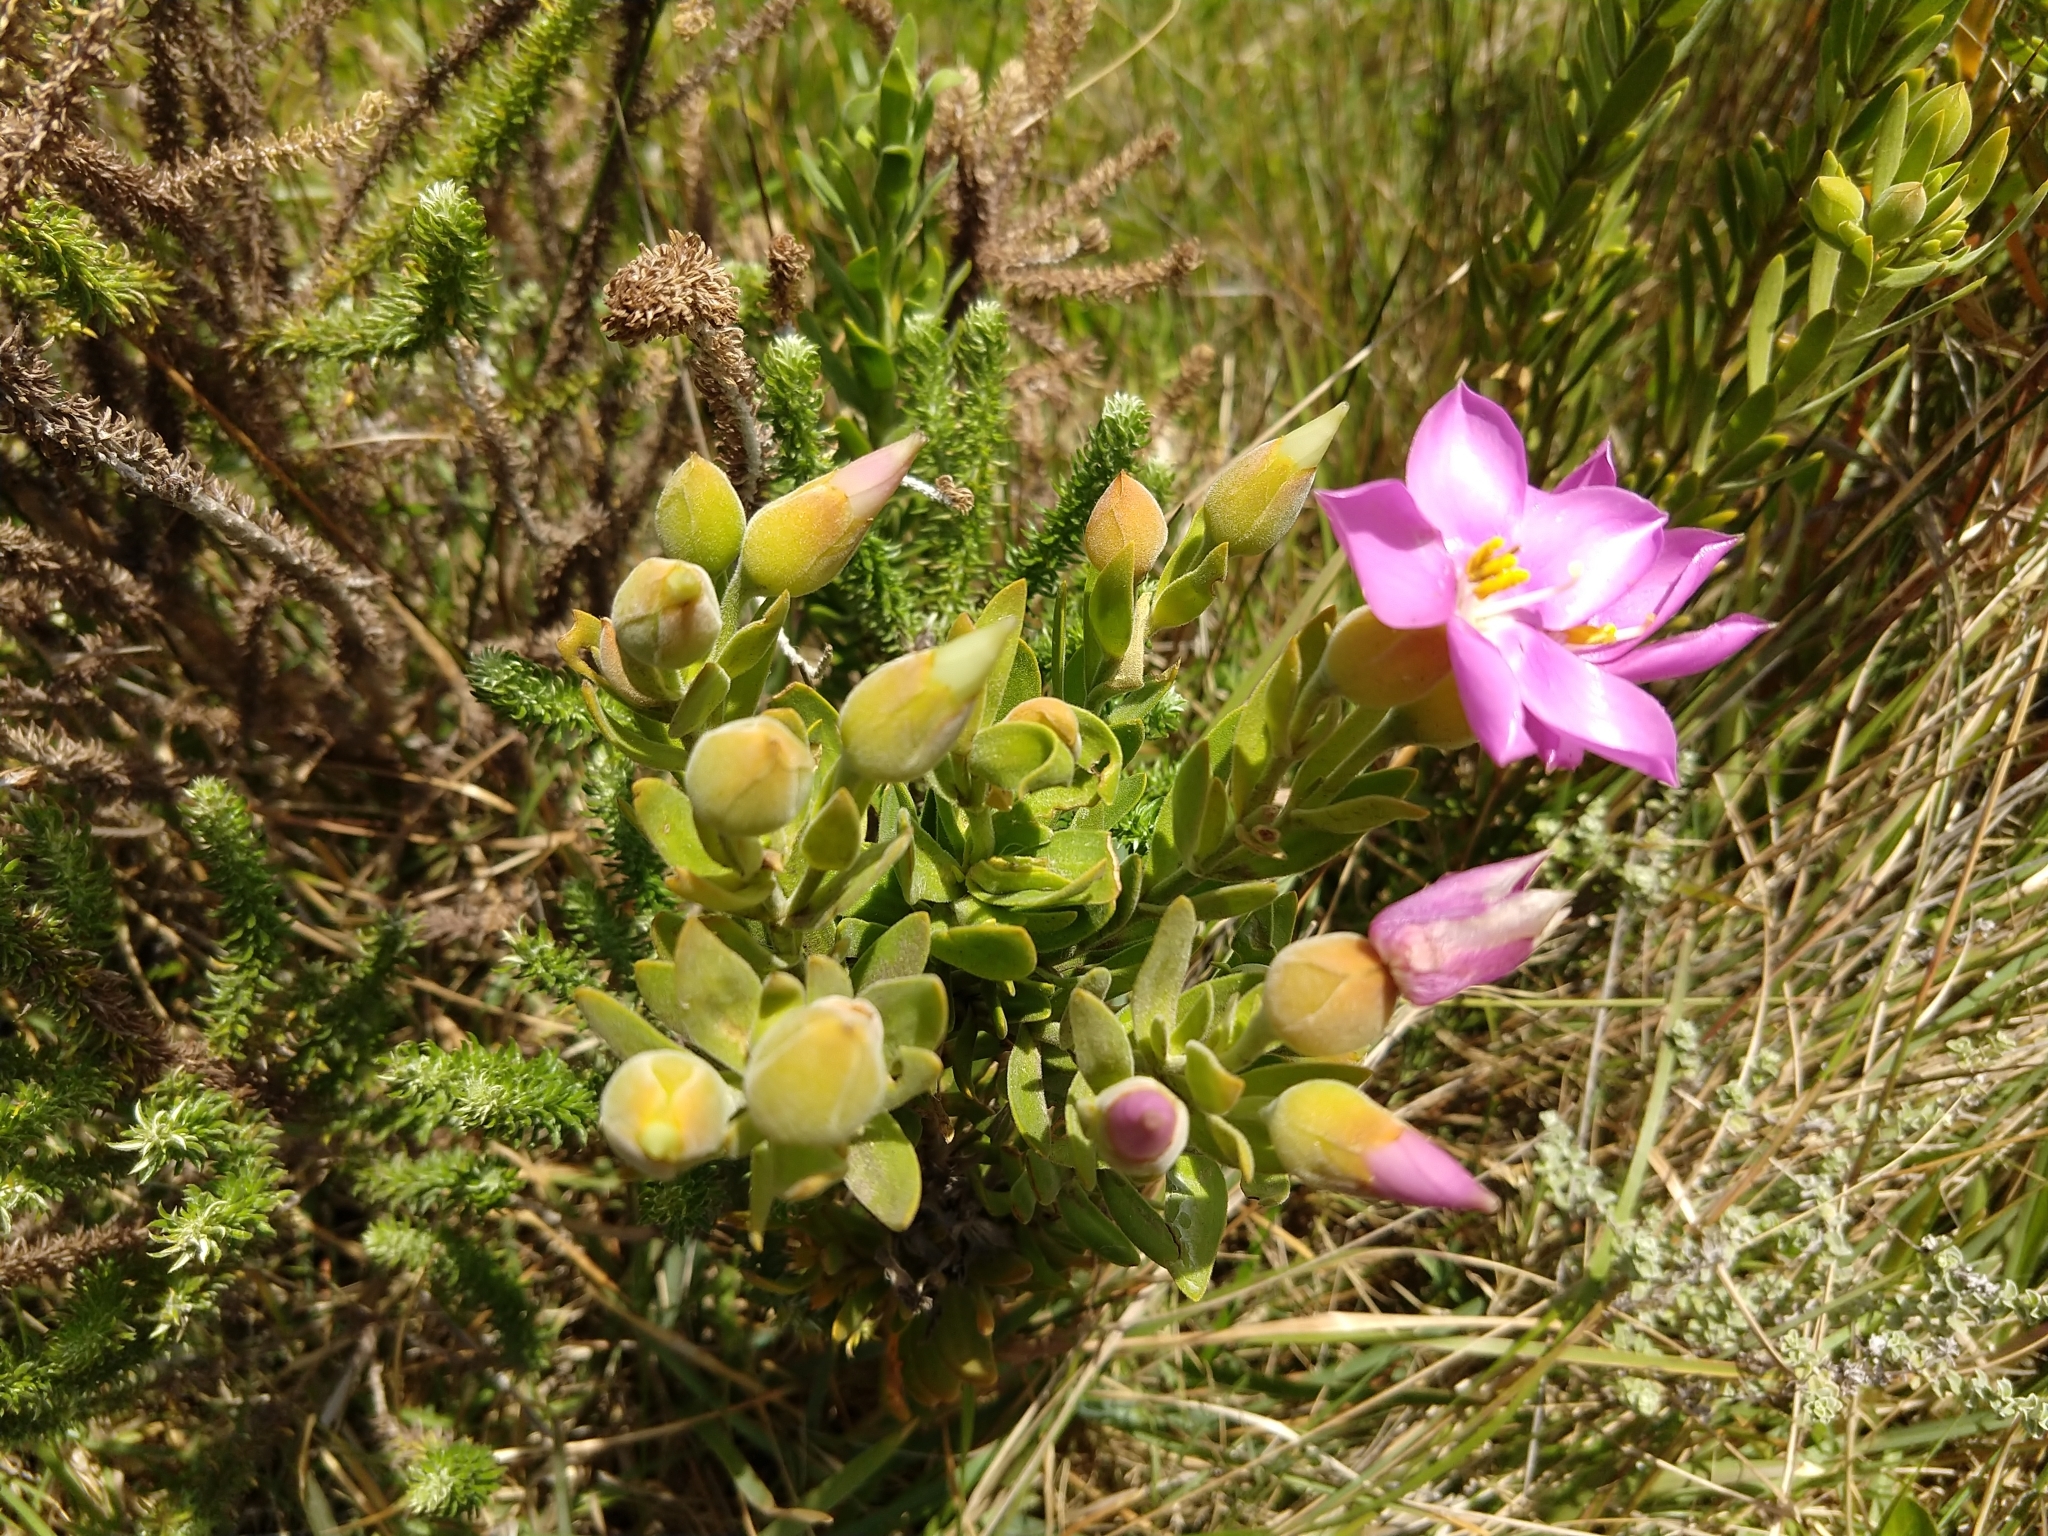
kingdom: Plantae
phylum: Tracheophyta
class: Magnoliopsida
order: Gentianales
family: Gentianaceae
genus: Orphium
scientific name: Orphium frutescens
